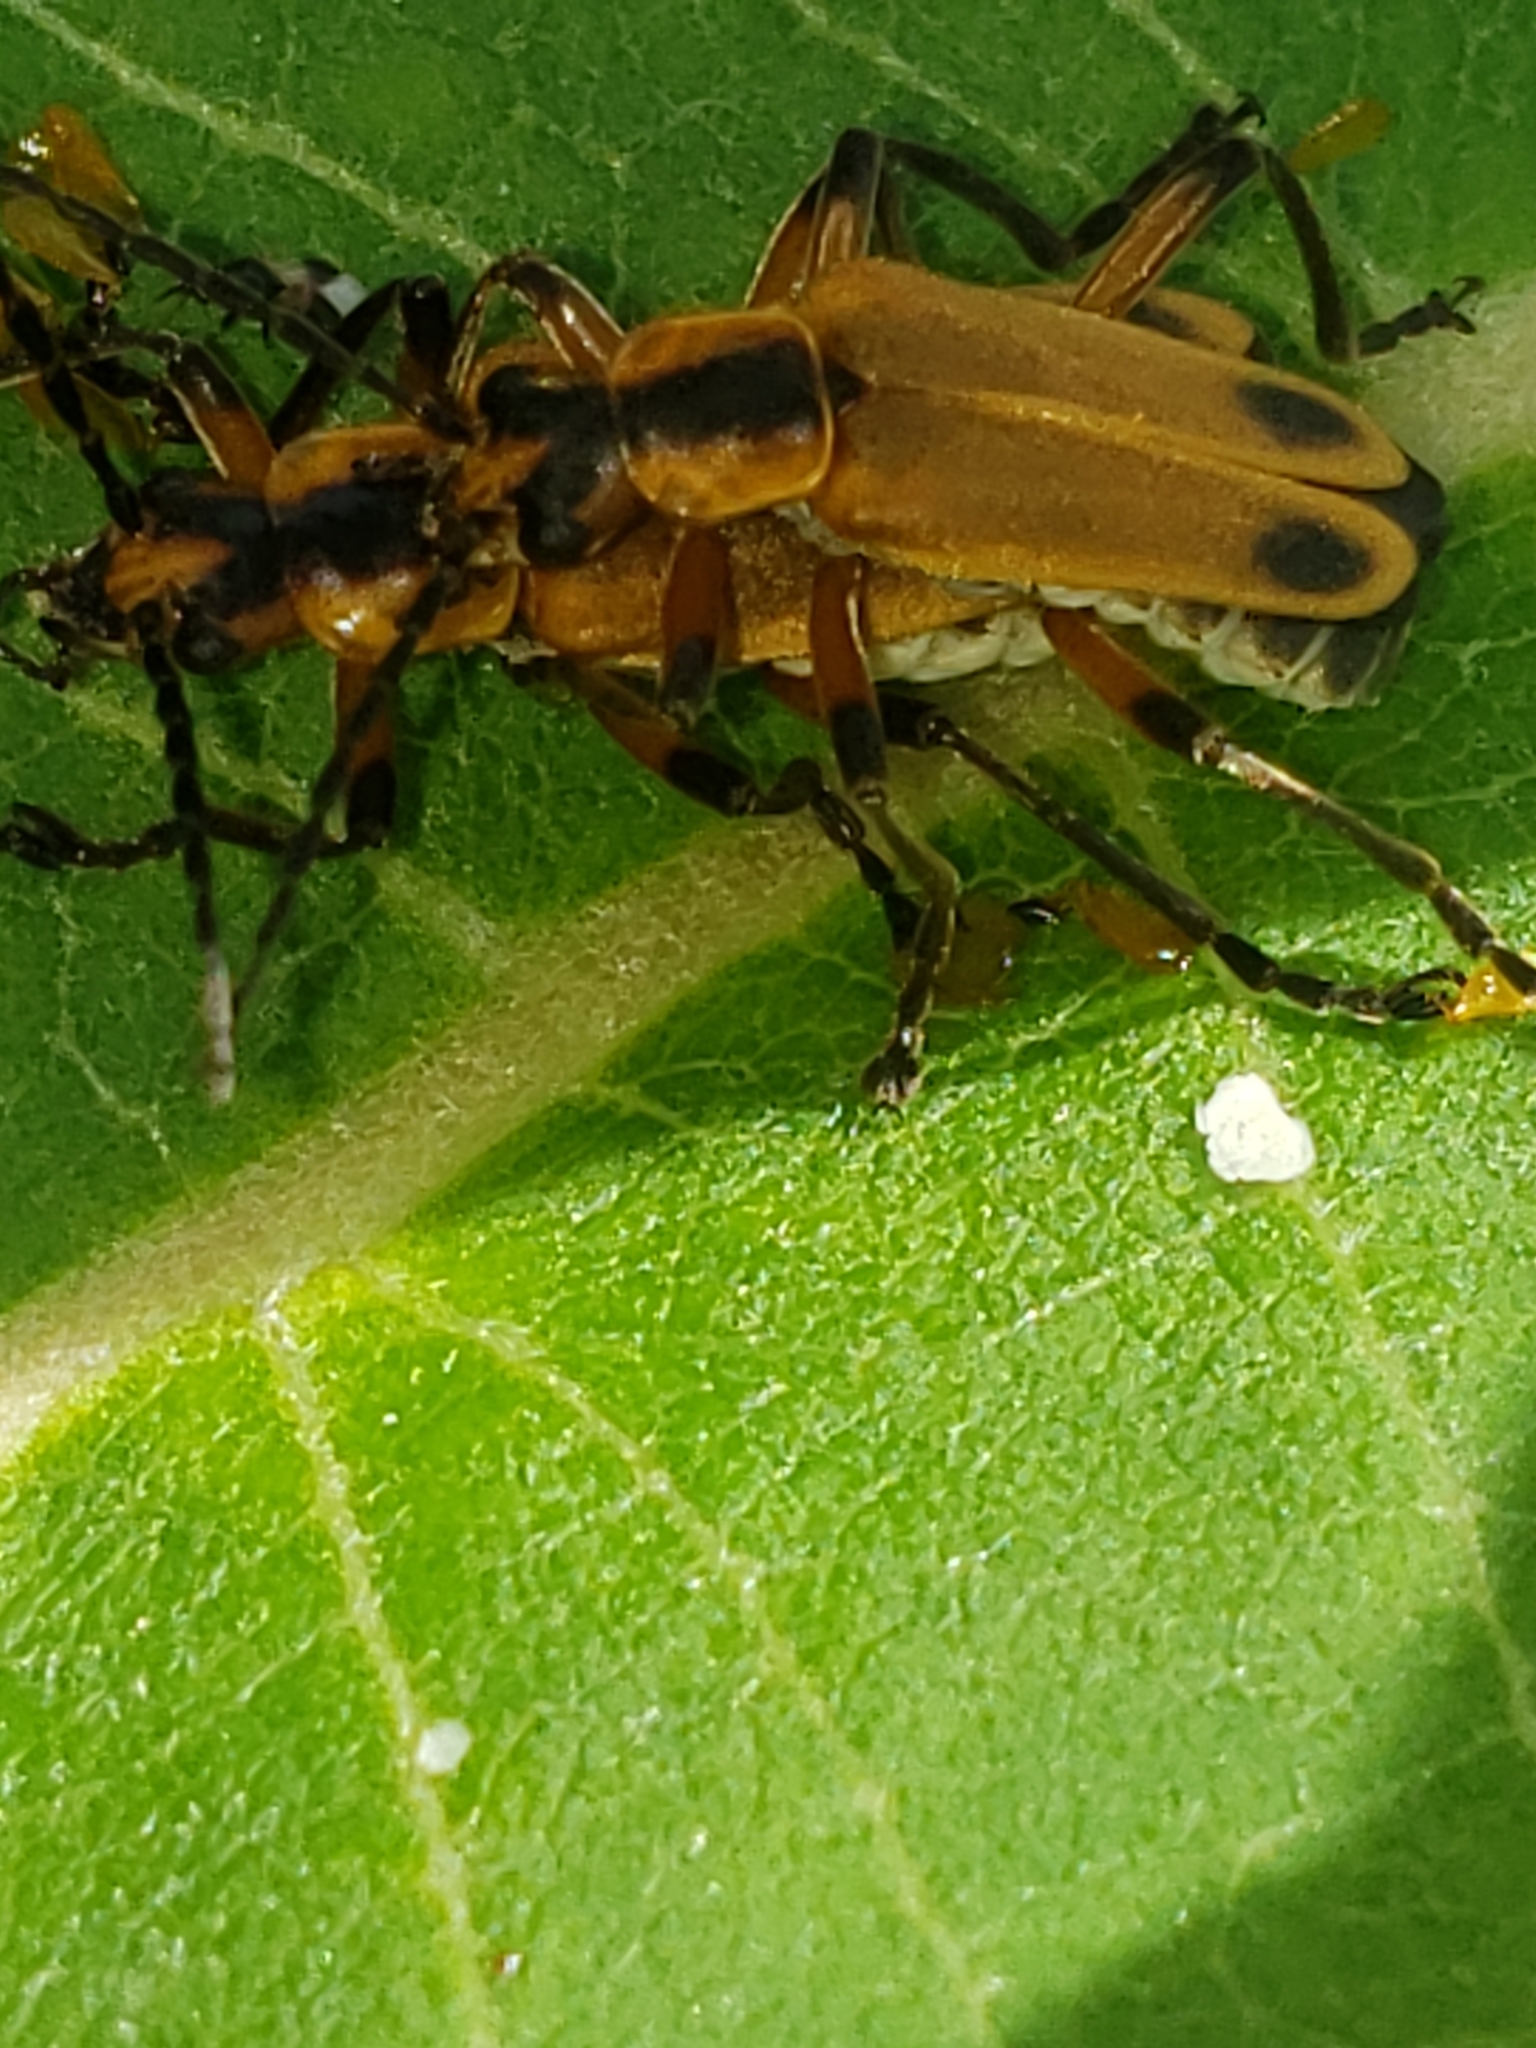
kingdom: Animalia
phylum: Arthropoda
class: Insecta
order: Coleoptera
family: Cantharidae
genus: Chauliognathus
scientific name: Chauliognathus marginatus
